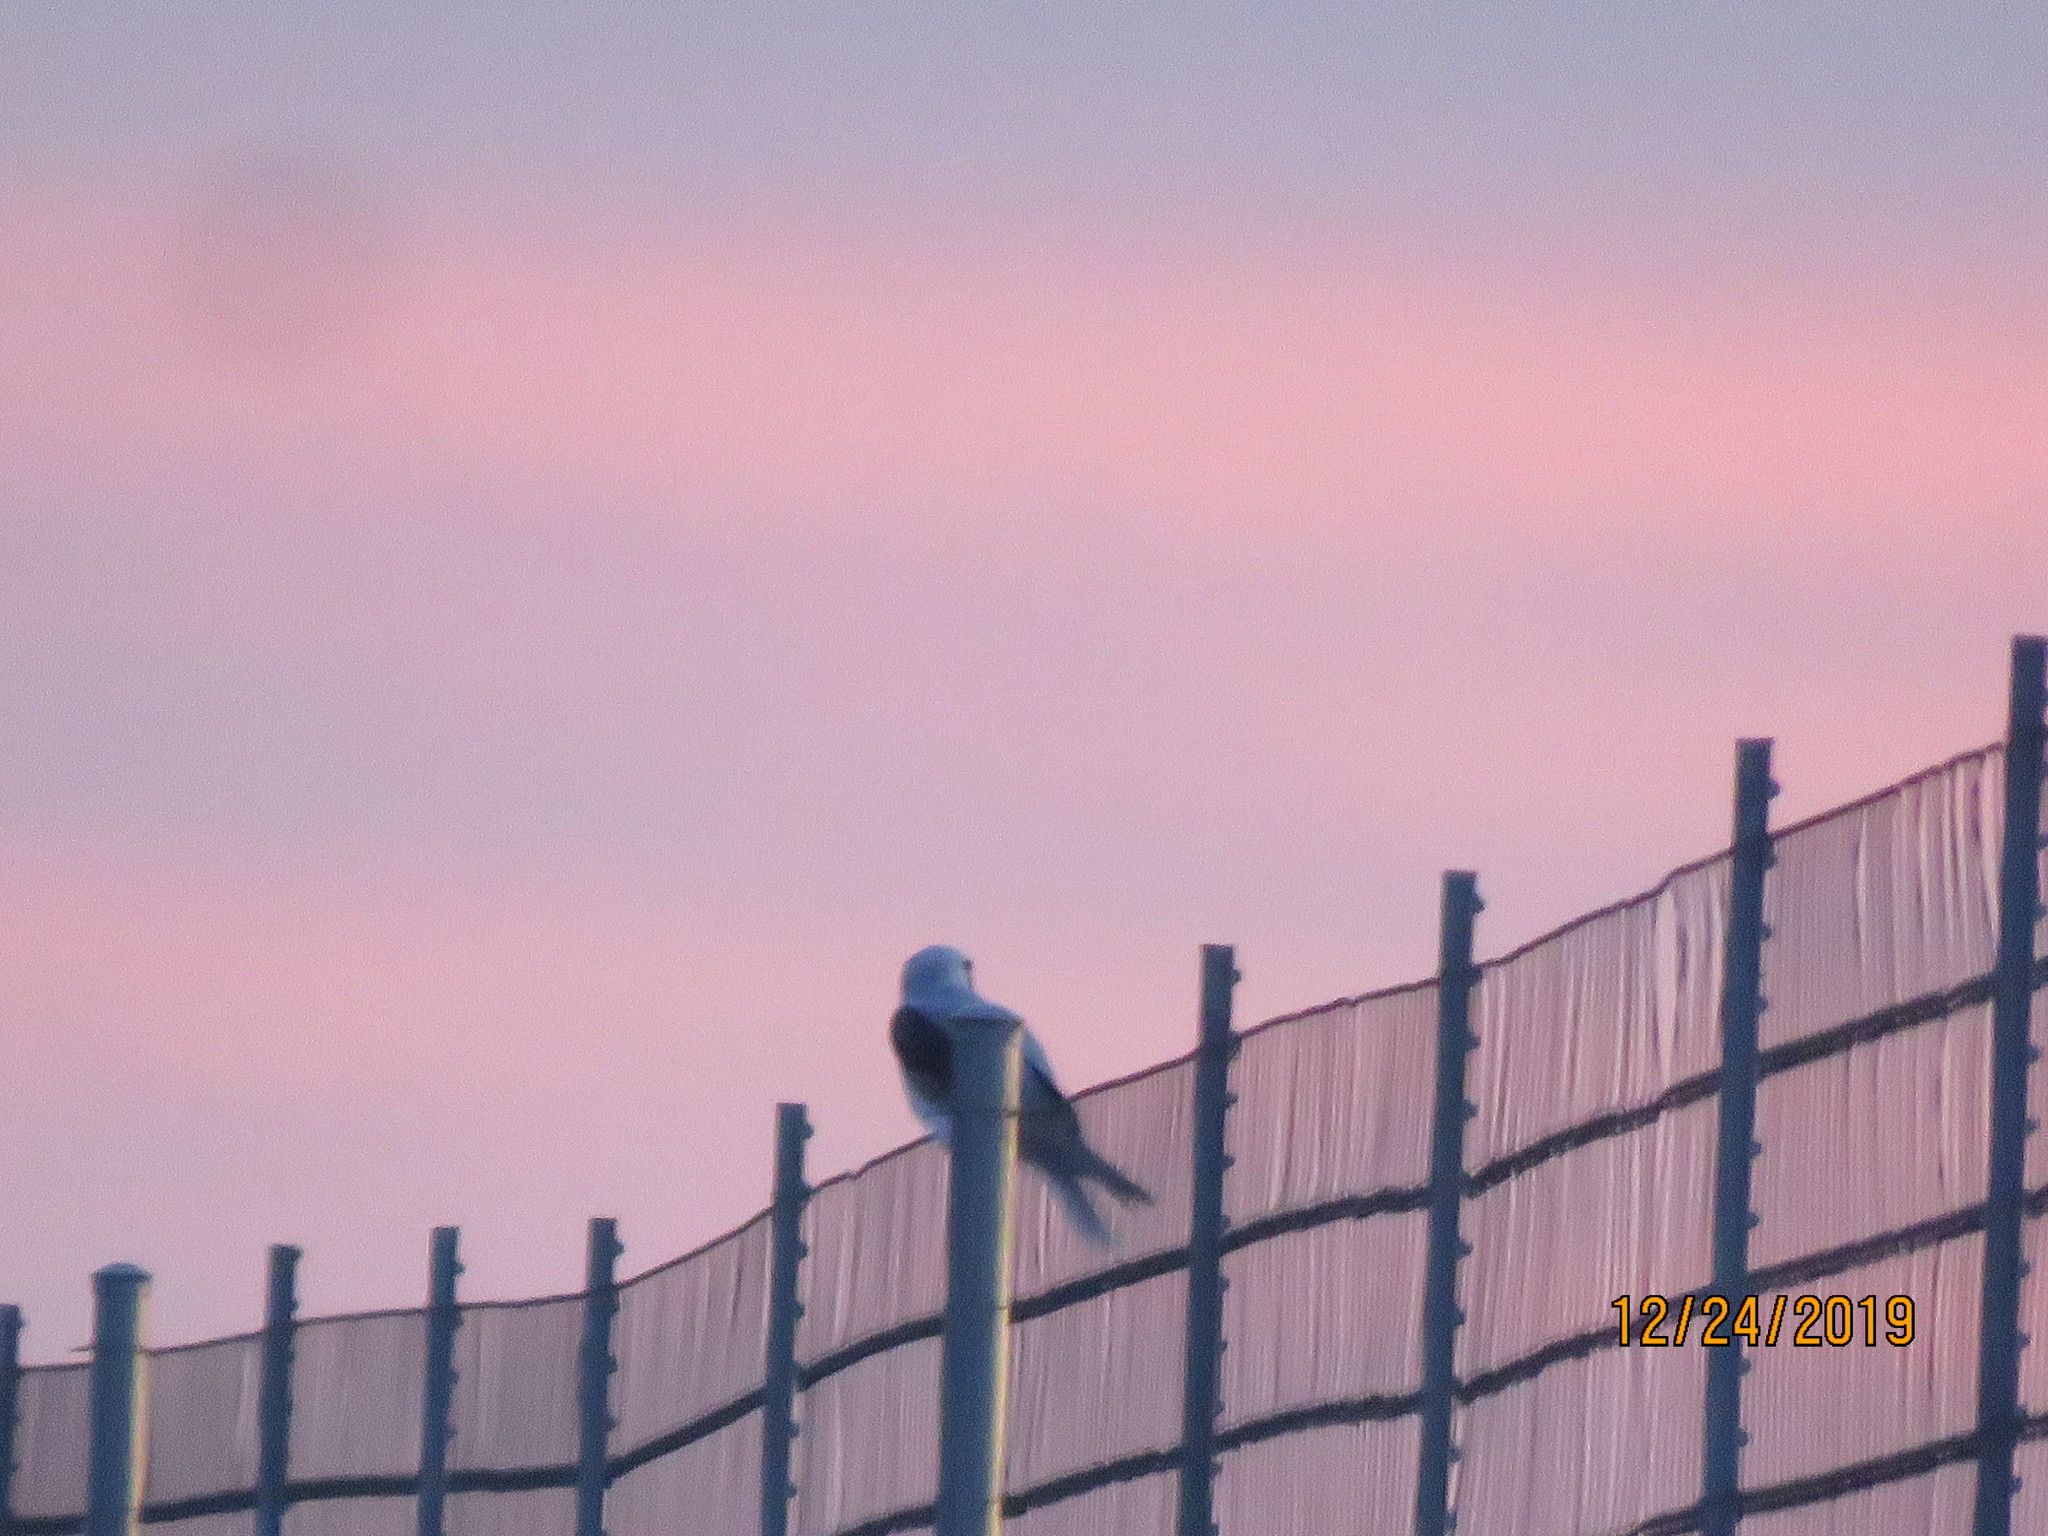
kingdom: Animalia
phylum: Chordata
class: Aves
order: Accipitriformes
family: Accipitridae
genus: Elanus
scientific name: Elanus leucurus
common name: White-tailed kite
